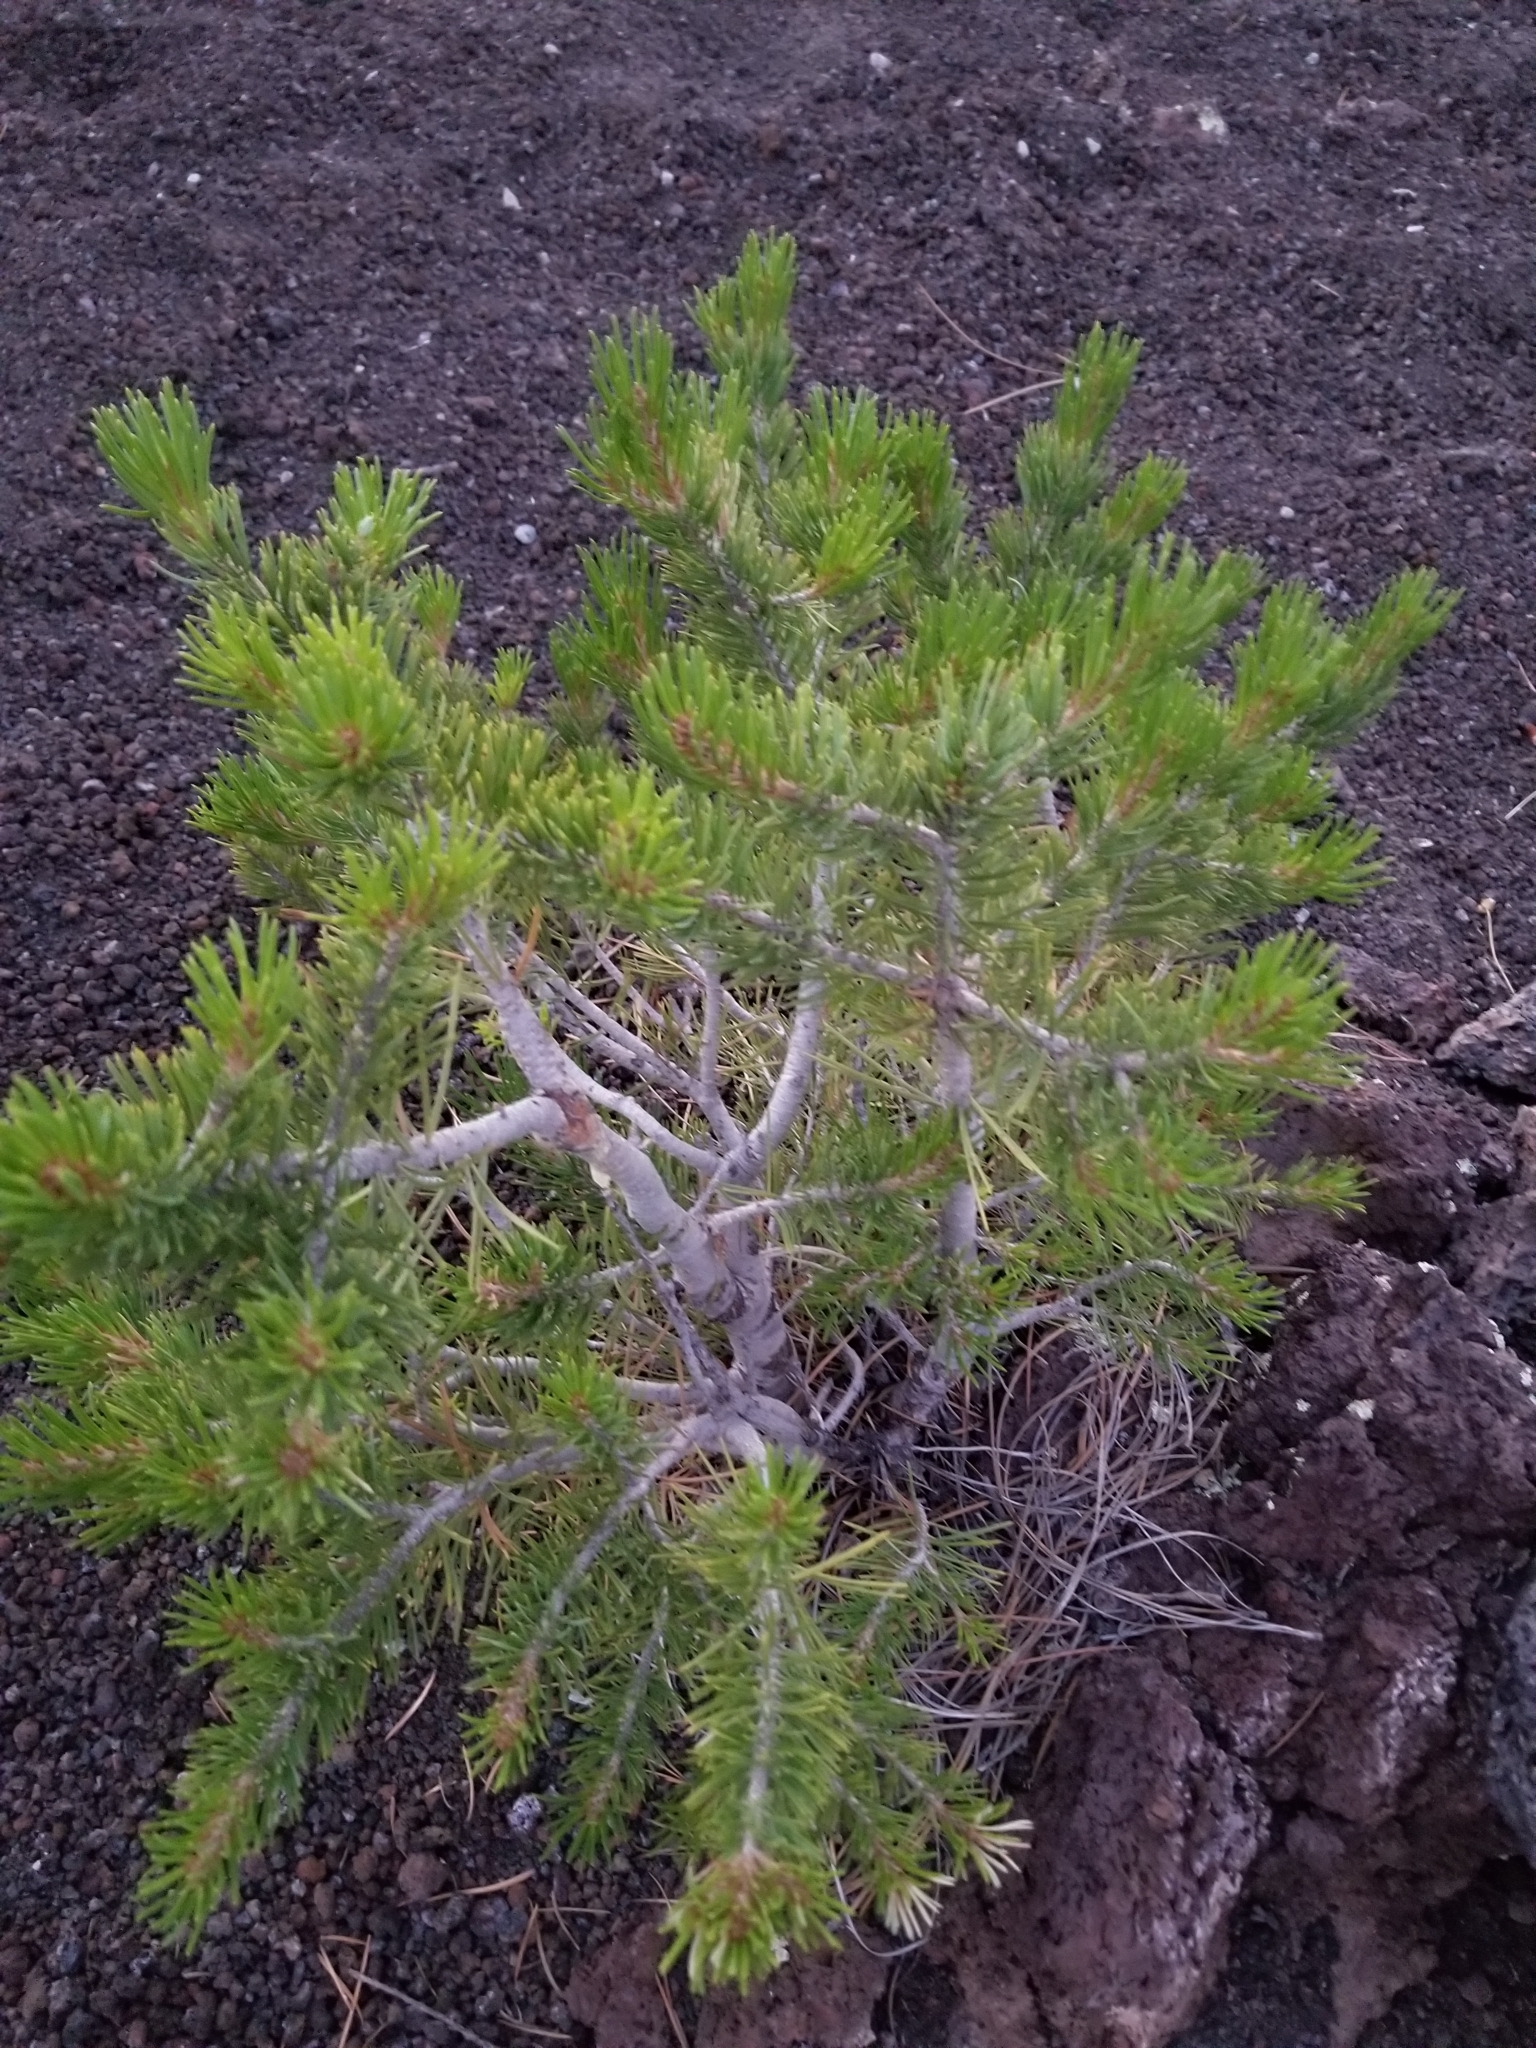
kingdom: Plantae
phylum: Tracheophyta
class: Pinopsida
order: Pinales
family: Pinaceae
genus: Pinus
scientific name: Pinus edulis
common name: Colorado pinyon
